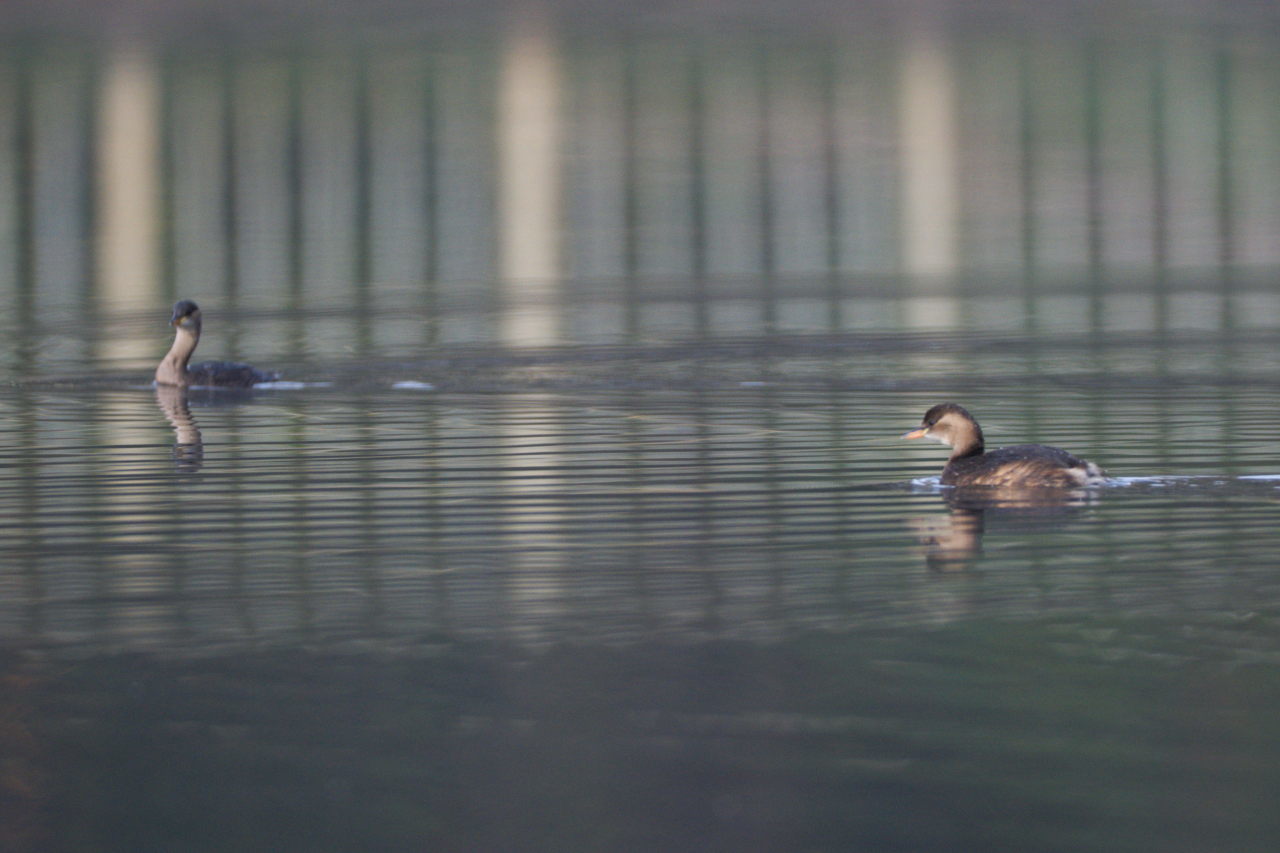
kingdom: Animalia
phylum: Chordata
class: Aves
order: Podicipediformes
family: Podicipedidae
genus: Tachybaptus
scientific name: Tachybaptus ruficollis
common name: Little grebe
